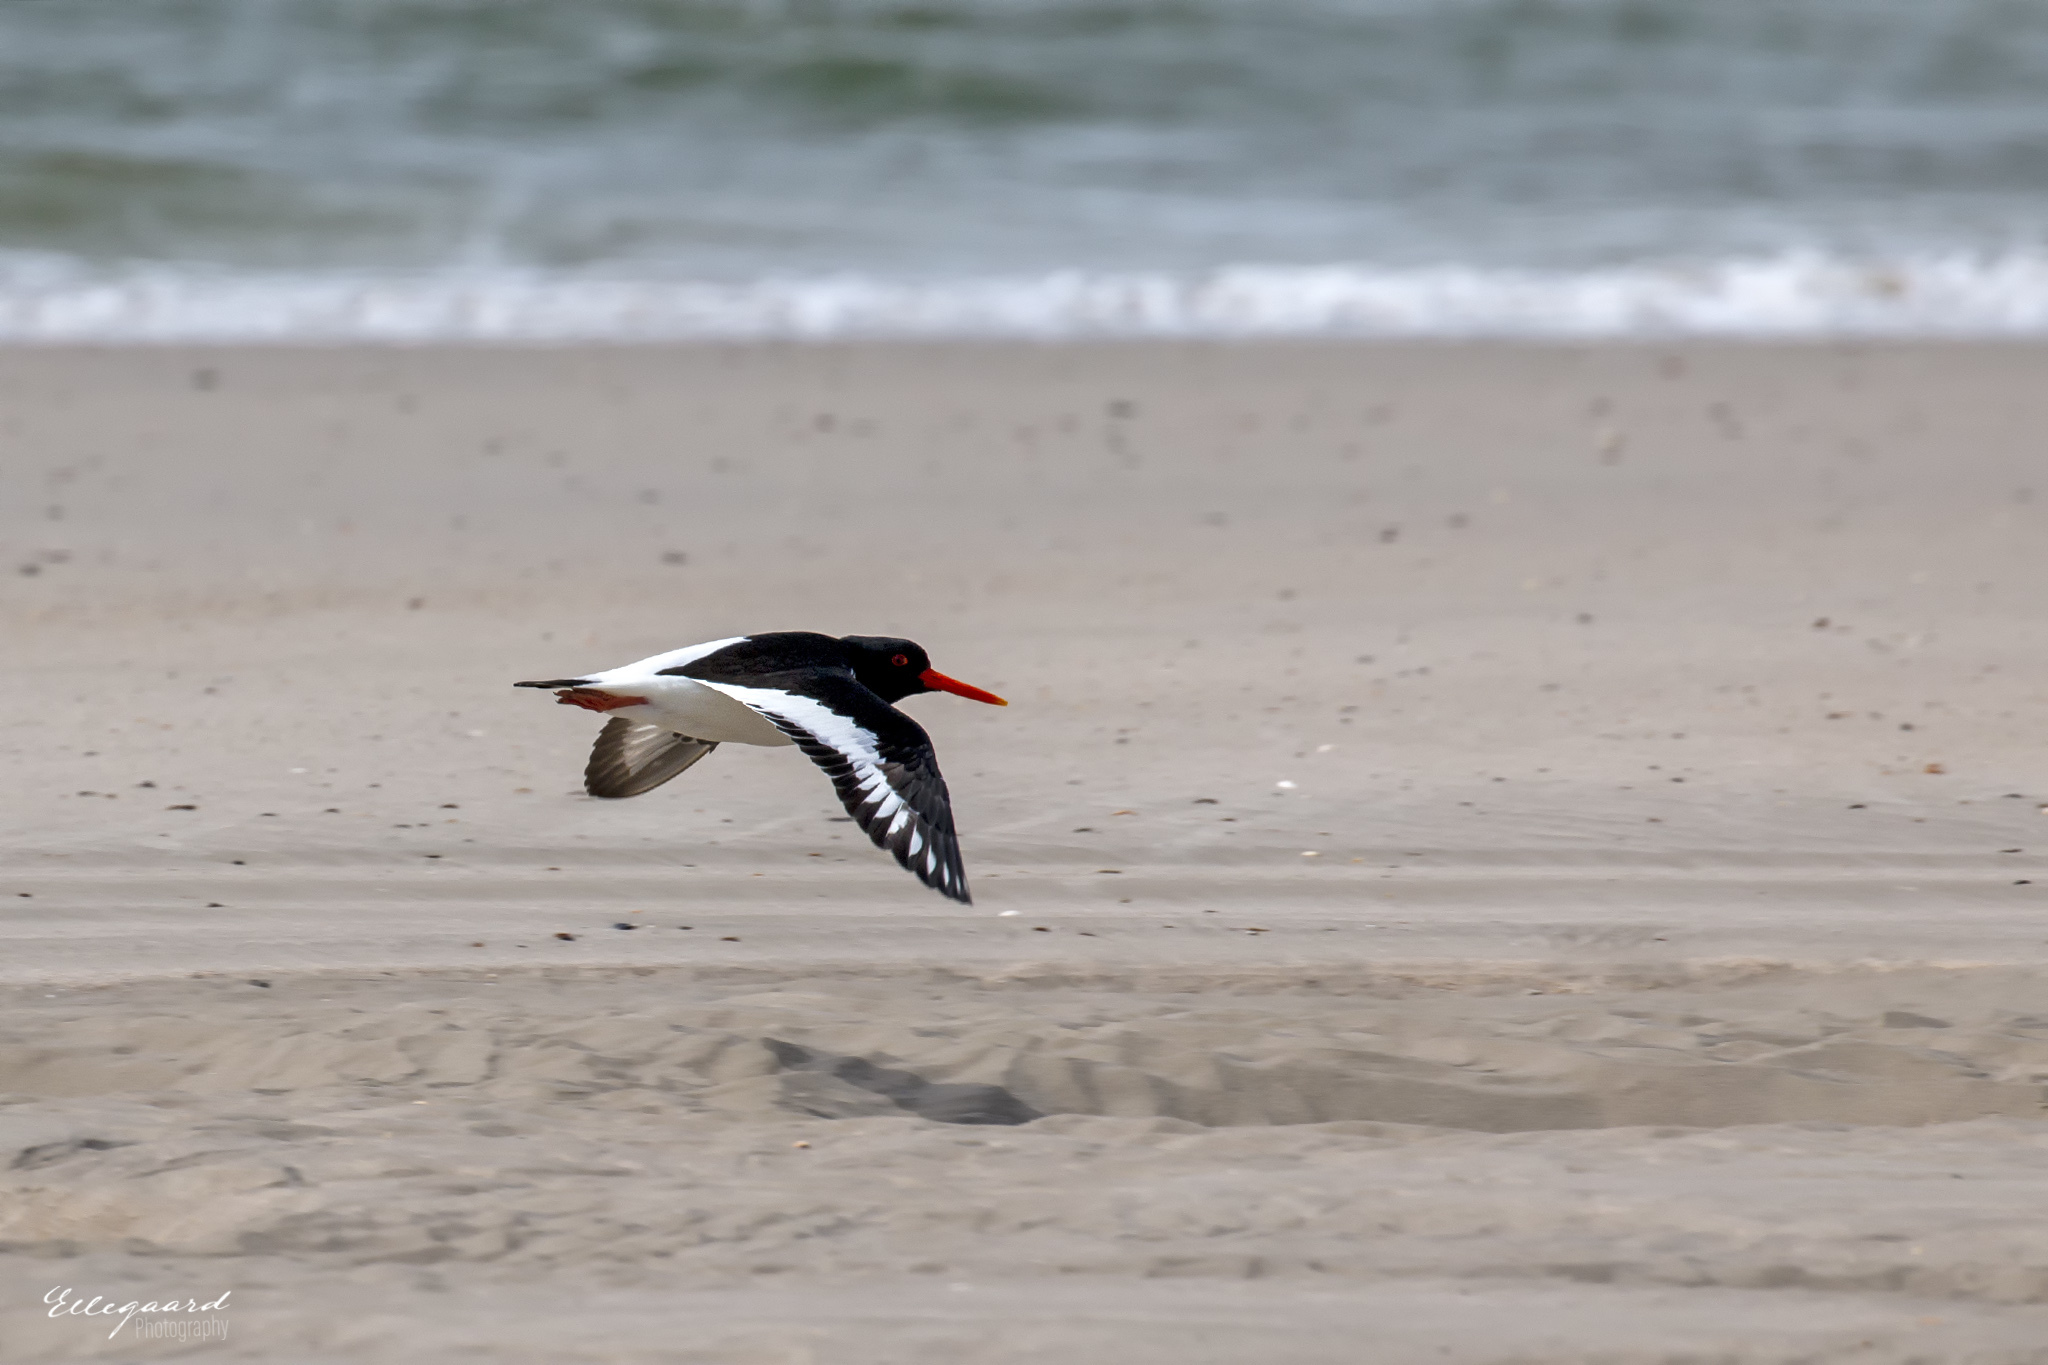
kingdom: Animalia
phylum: Chordata
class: Aves
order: Charadriiformes
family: Haematopodidae
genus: Haematopus
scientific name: Haematopus ostralegus
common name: Eurasian oystercatcher
